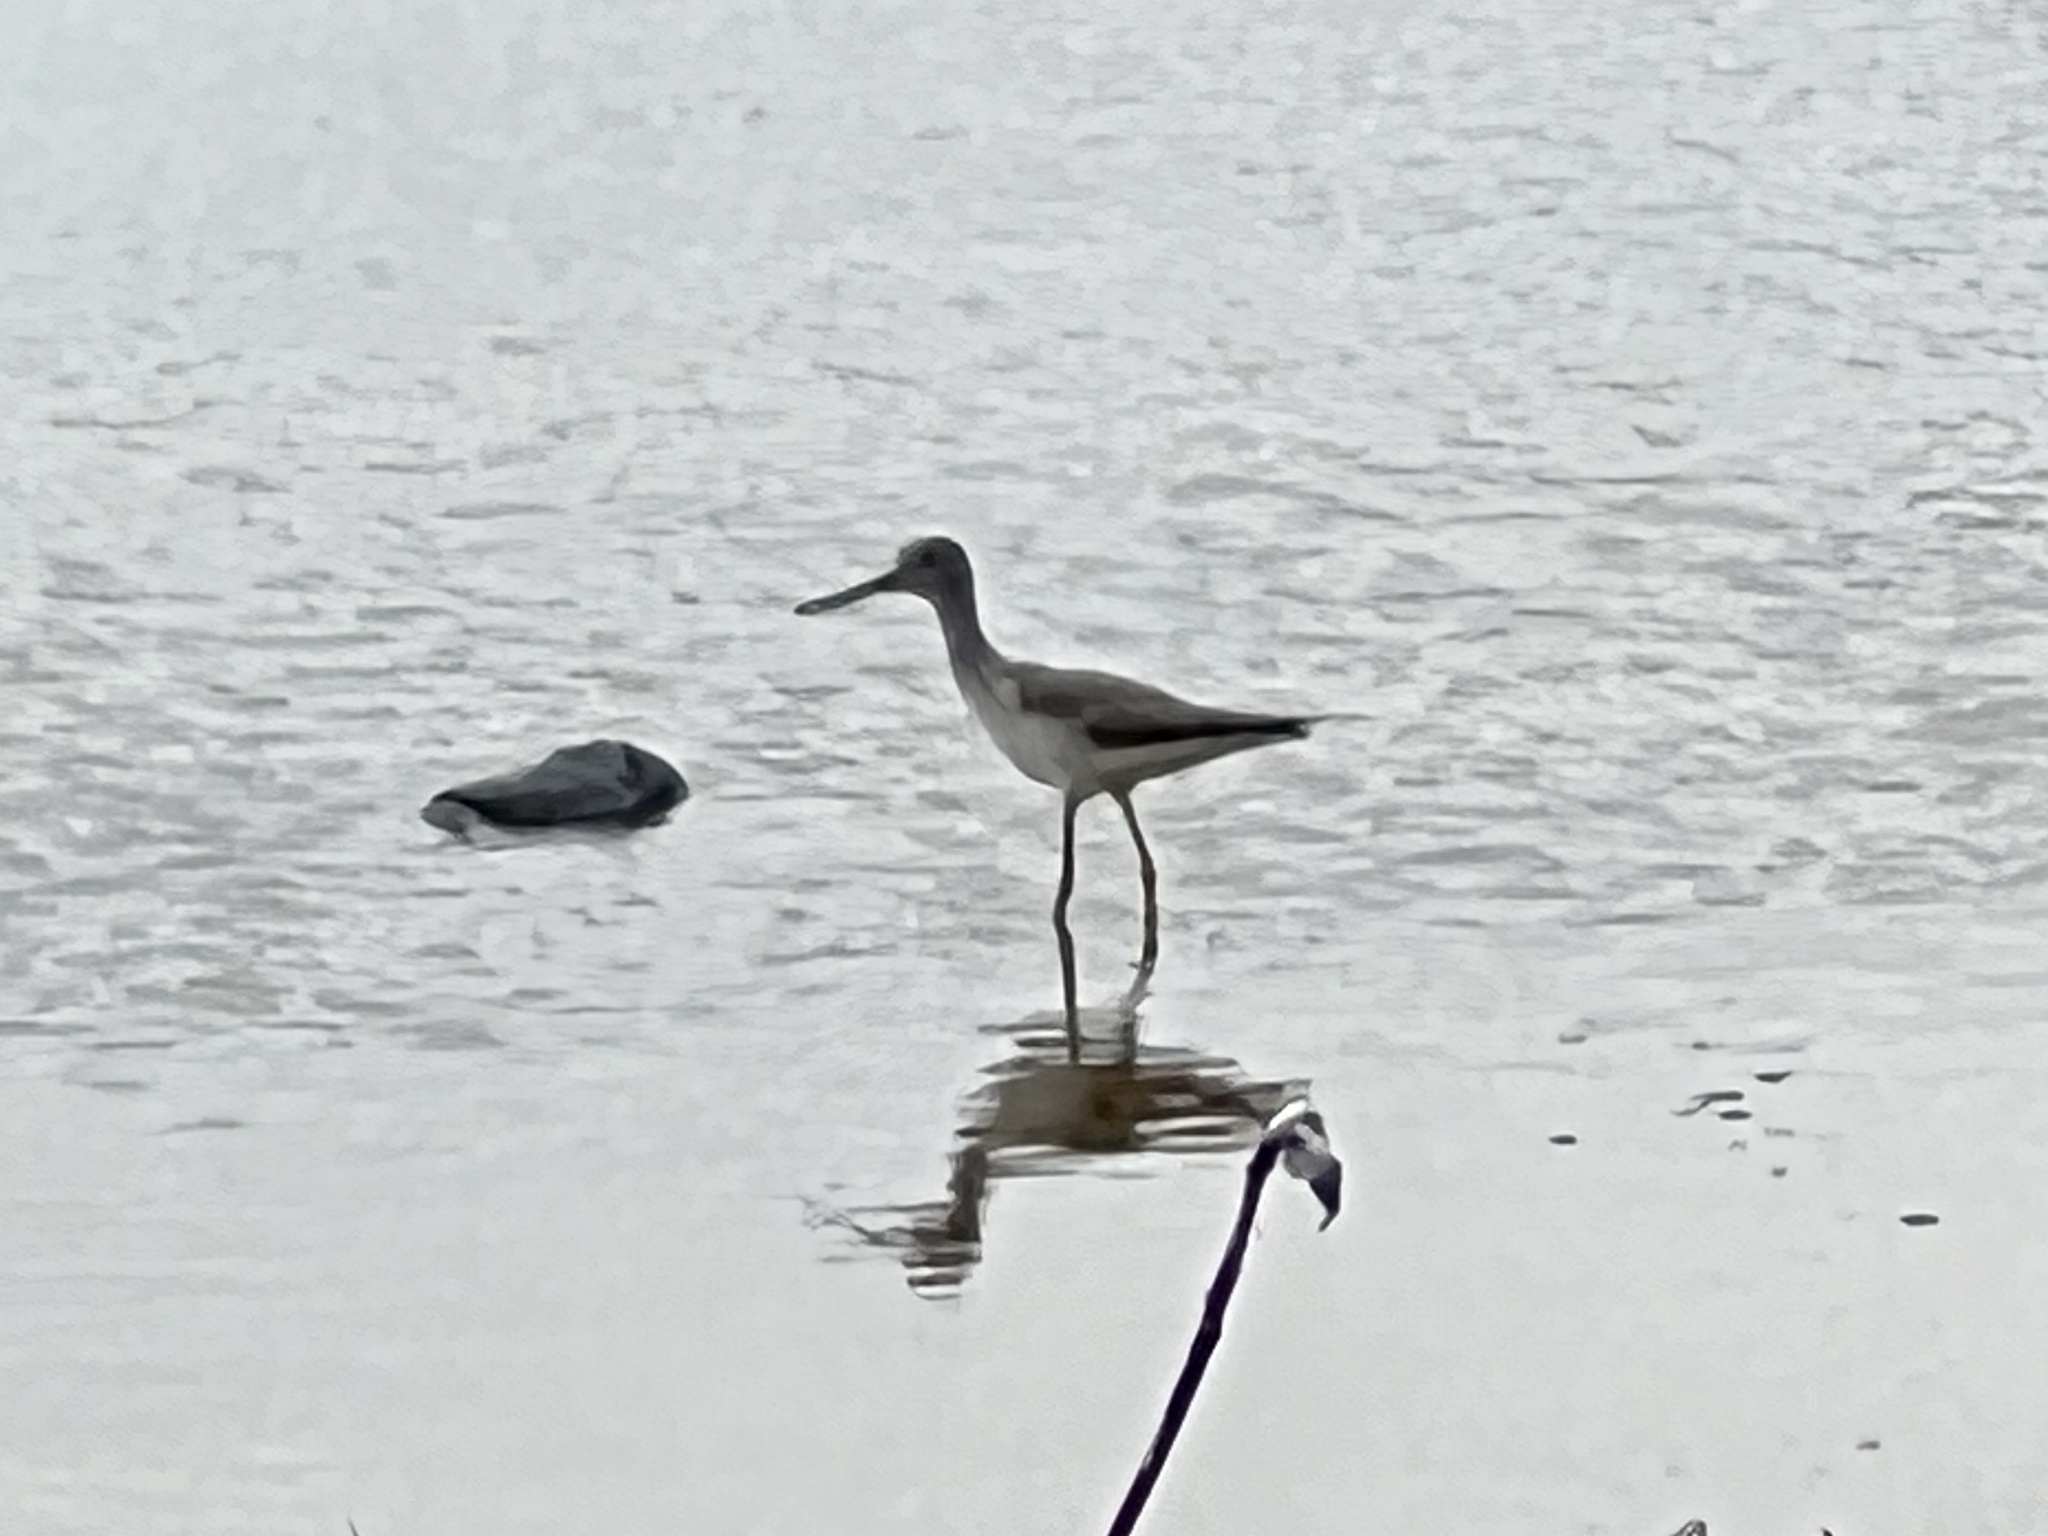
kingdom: Animalia
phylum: Chordata
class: Aves
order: Charadriiformes
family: Scolopacidae
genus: Tringa
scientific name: Tringa melanoleuca
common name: Greater yellowlegs
